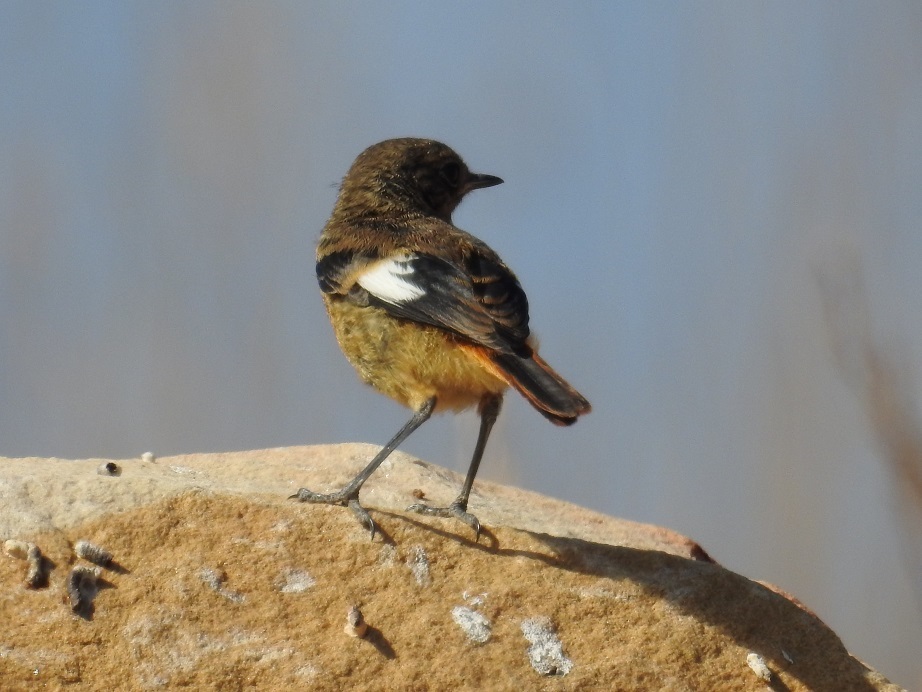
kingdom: Animalia
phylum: Chordata
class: Aves
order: Passeriformes
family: Muscicapidae
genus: Phoenicurus
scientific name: Phoenicurus moussieri
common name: Moussier's redstart
